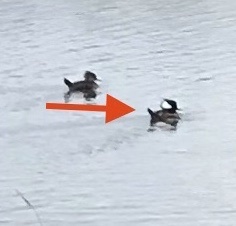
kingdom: Animalia
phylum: Chordata
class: Aves
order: Anseriformes
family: Anatidae
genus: Lophodytes
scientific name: Lophodytes cucullatus
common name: Hooded merganser
